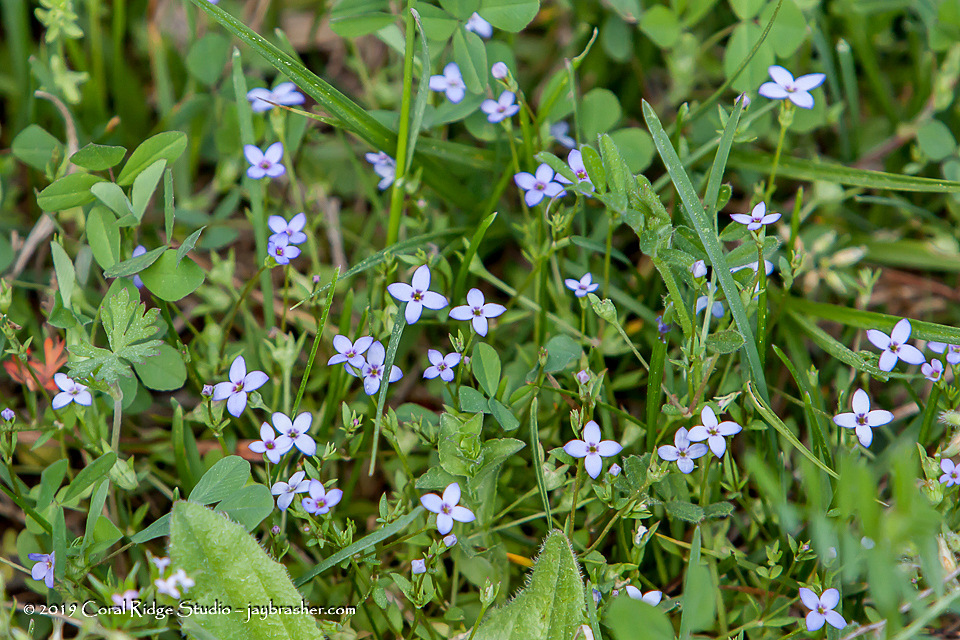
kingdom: Plantae
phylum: Tracheophyta
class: Magnoliopsida
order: Gentianales
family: Rubiaceae
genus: Houstonia
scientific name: Houstonia pusilla
